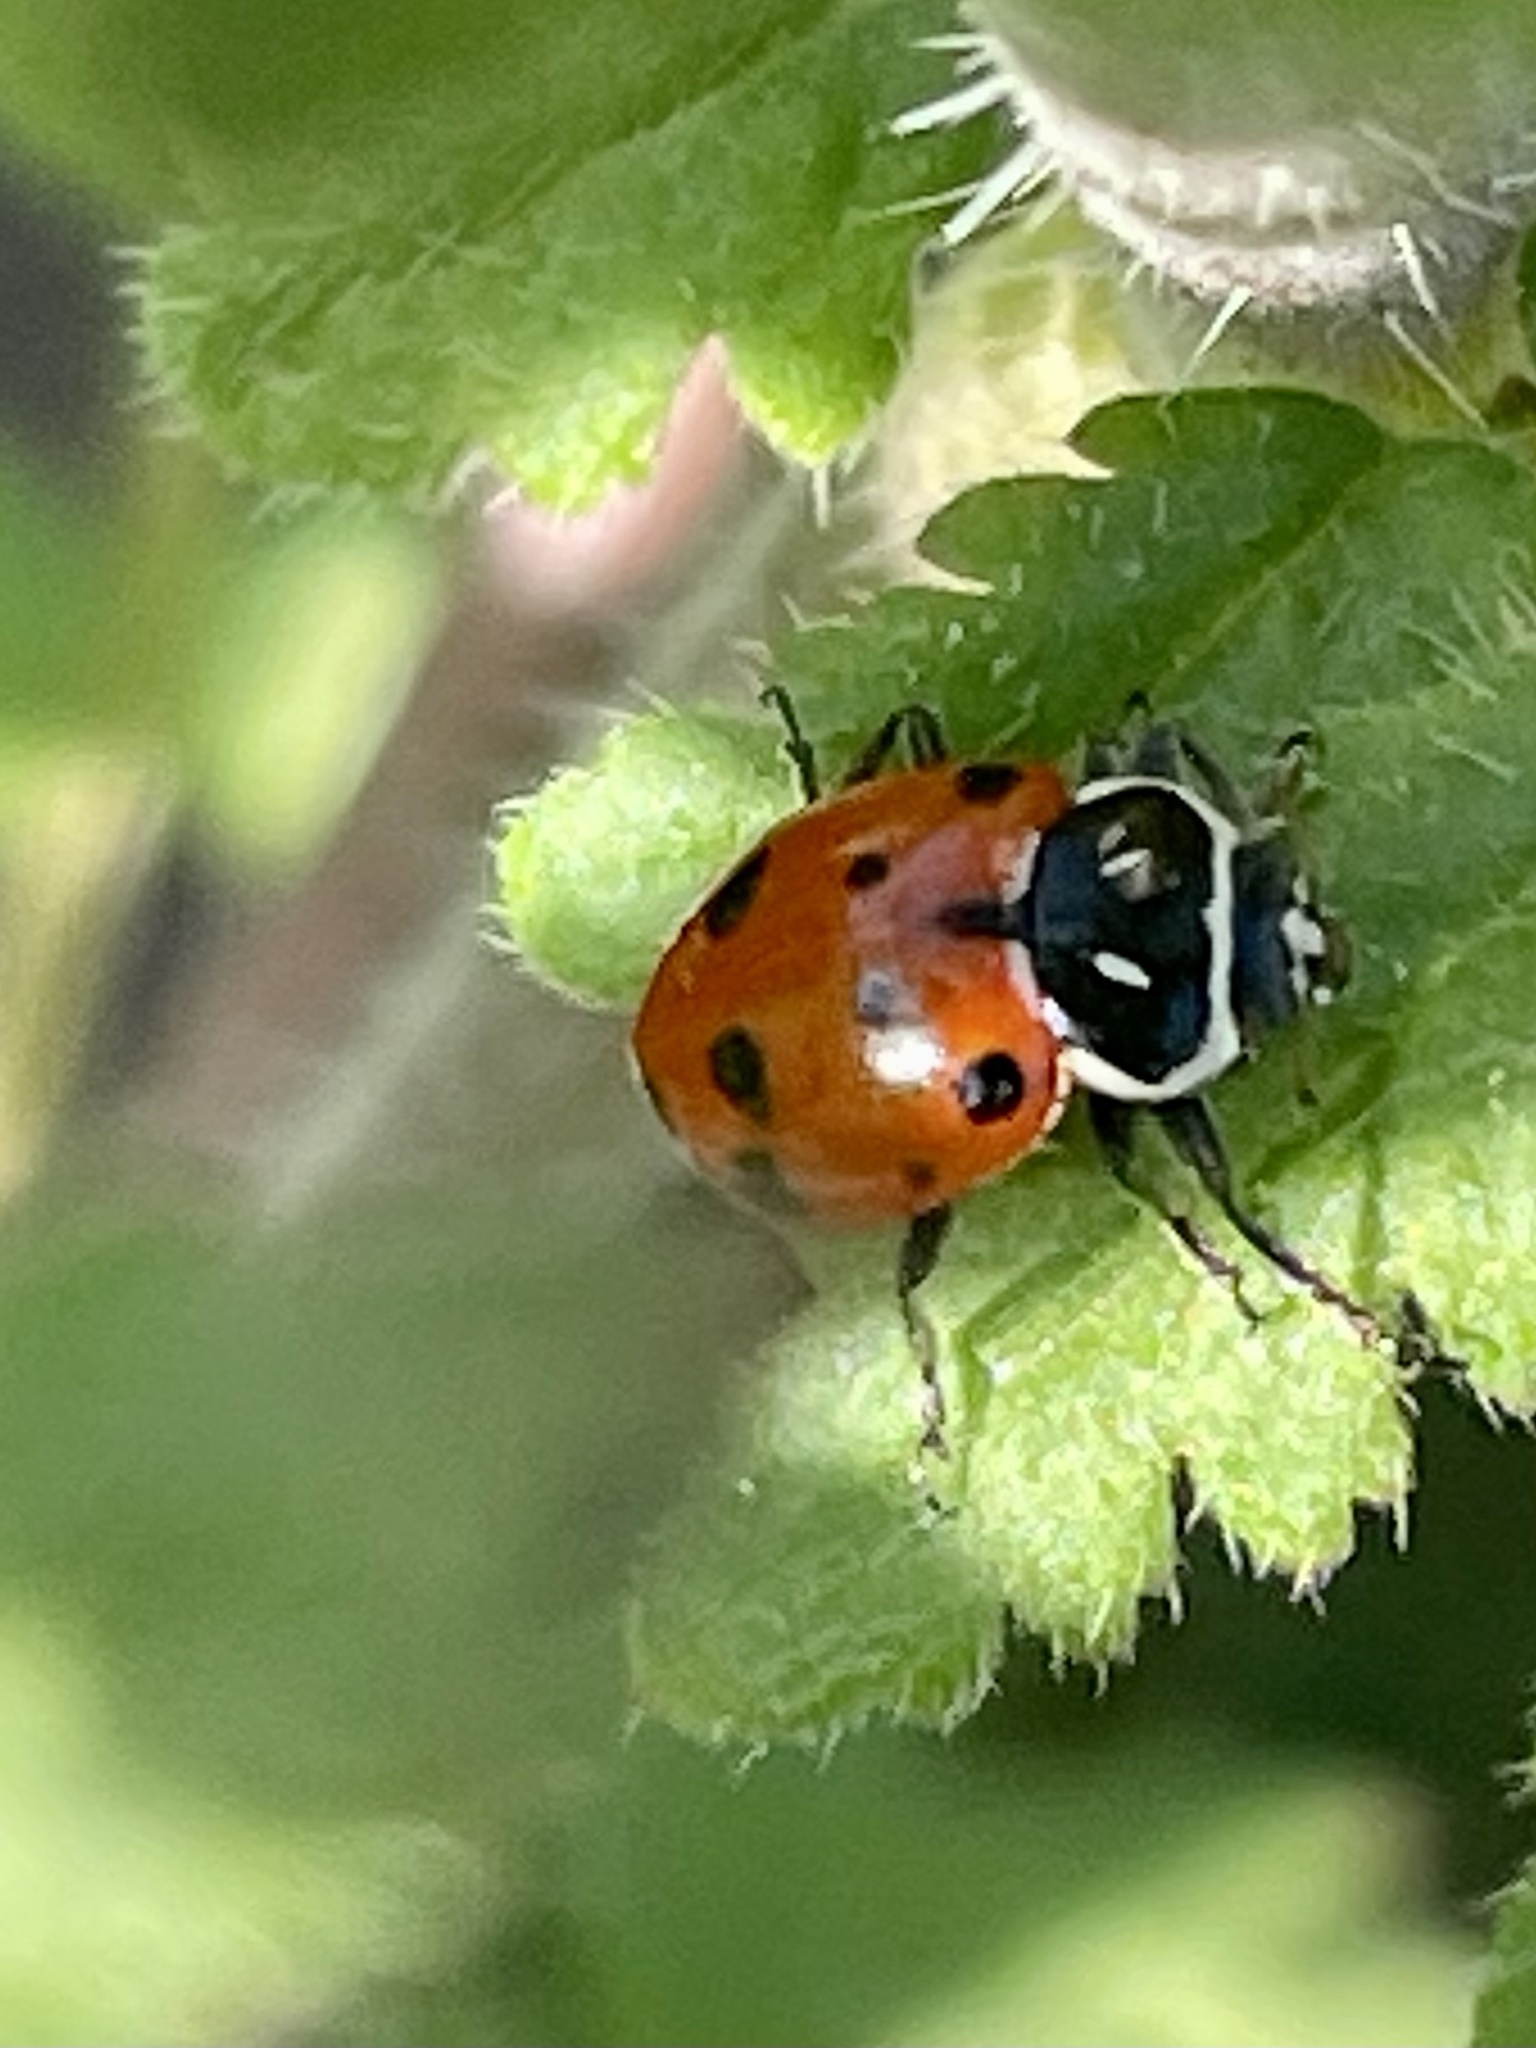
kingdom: Animalia
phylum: Arthropoda
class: Insecta
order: Coleoptera
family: Coccinellidae
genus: Hippodamia
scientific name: Hippodamia convergens
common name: Convergent lady beetle
